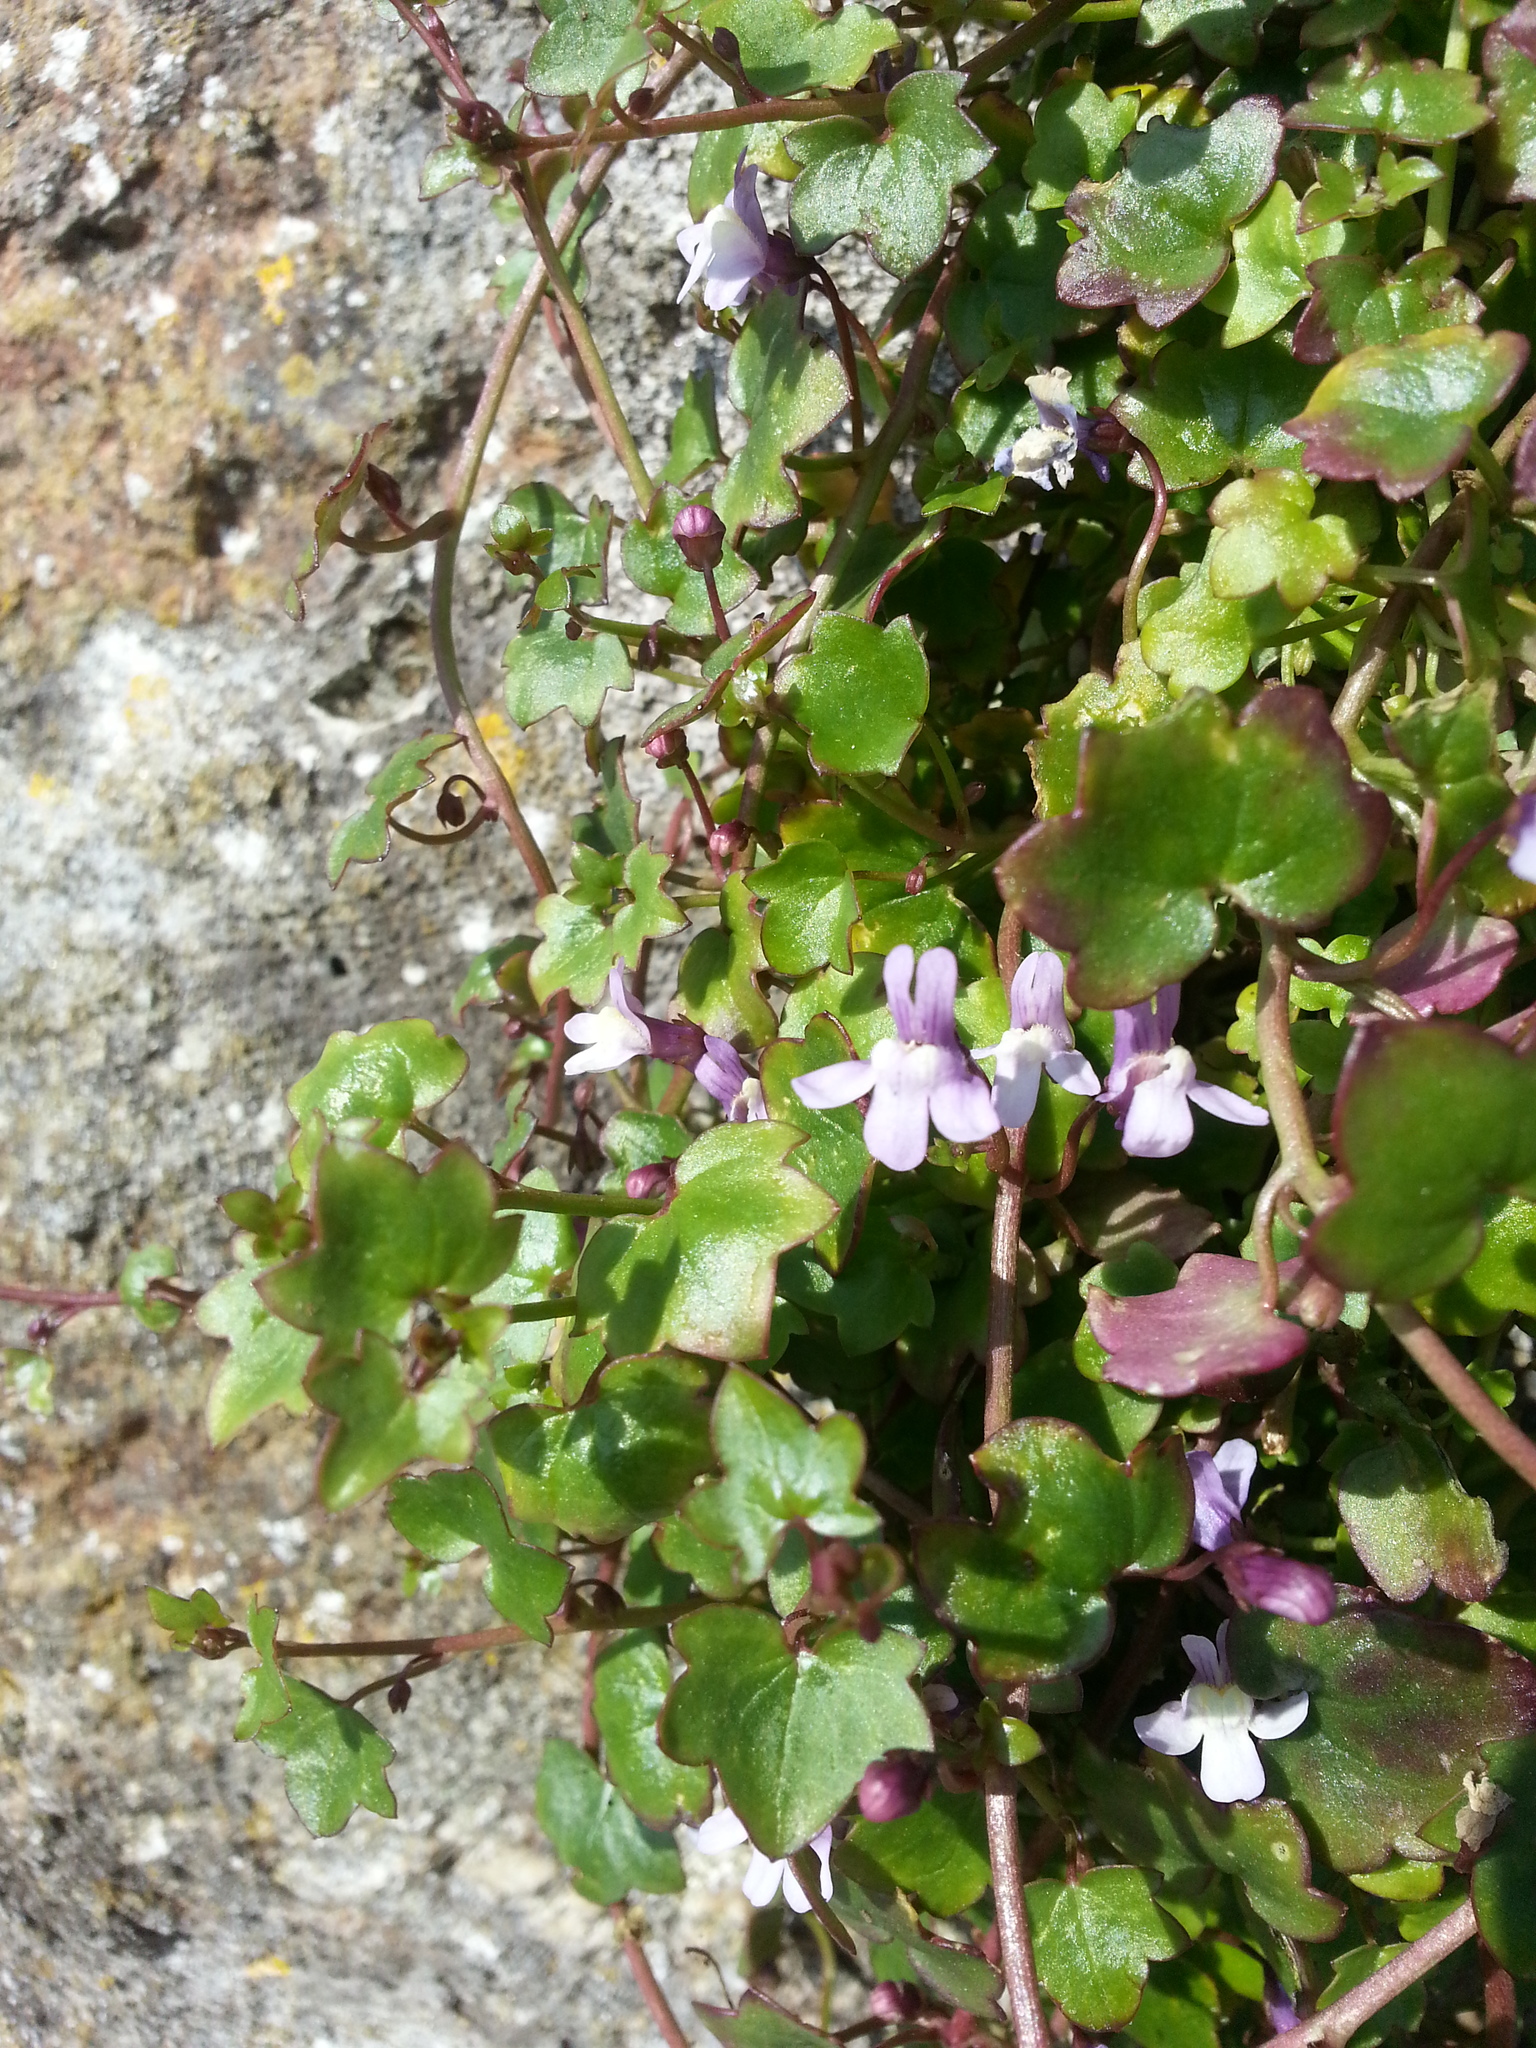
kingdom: Plantae
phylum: Tracheophyta
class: Magnoliopsida
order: Lamiales
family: Plantaginaceae
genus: Cymbalaria
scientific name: Cymbalaria muralis
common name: Ivy-leaved toadflax
